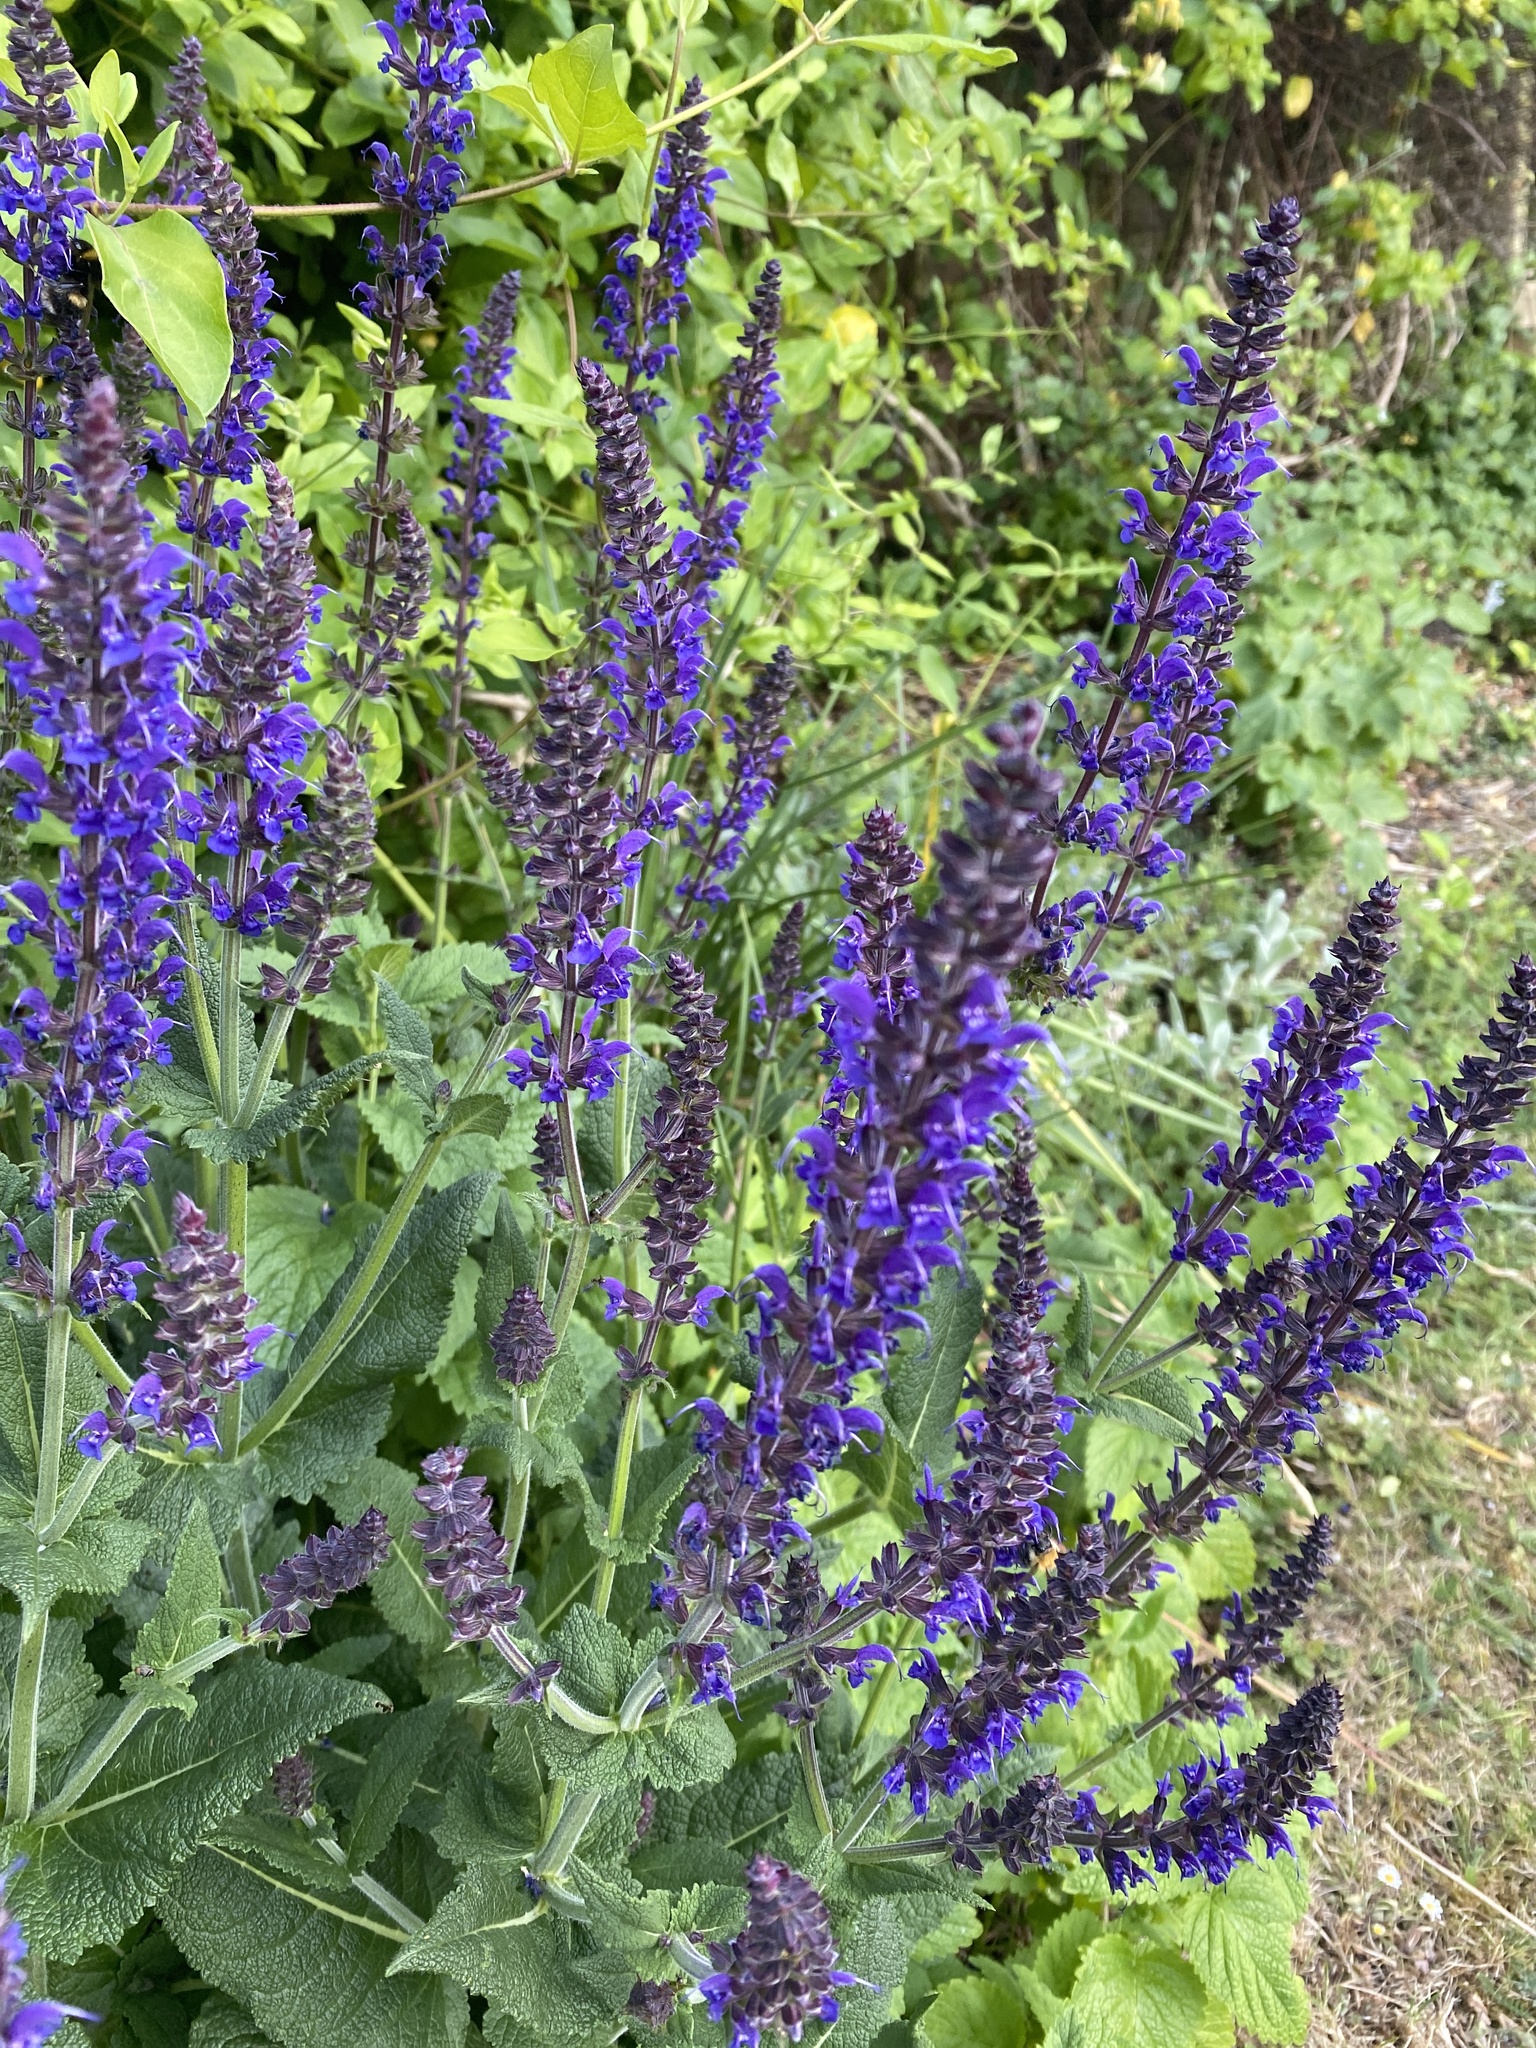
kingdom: Plantae
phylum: Tracheophyta
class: Magnoliopsida
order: Lamiales
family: Lamiaceae
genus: Salvia
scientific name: Salvia nemorosa
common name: Balkan clary
